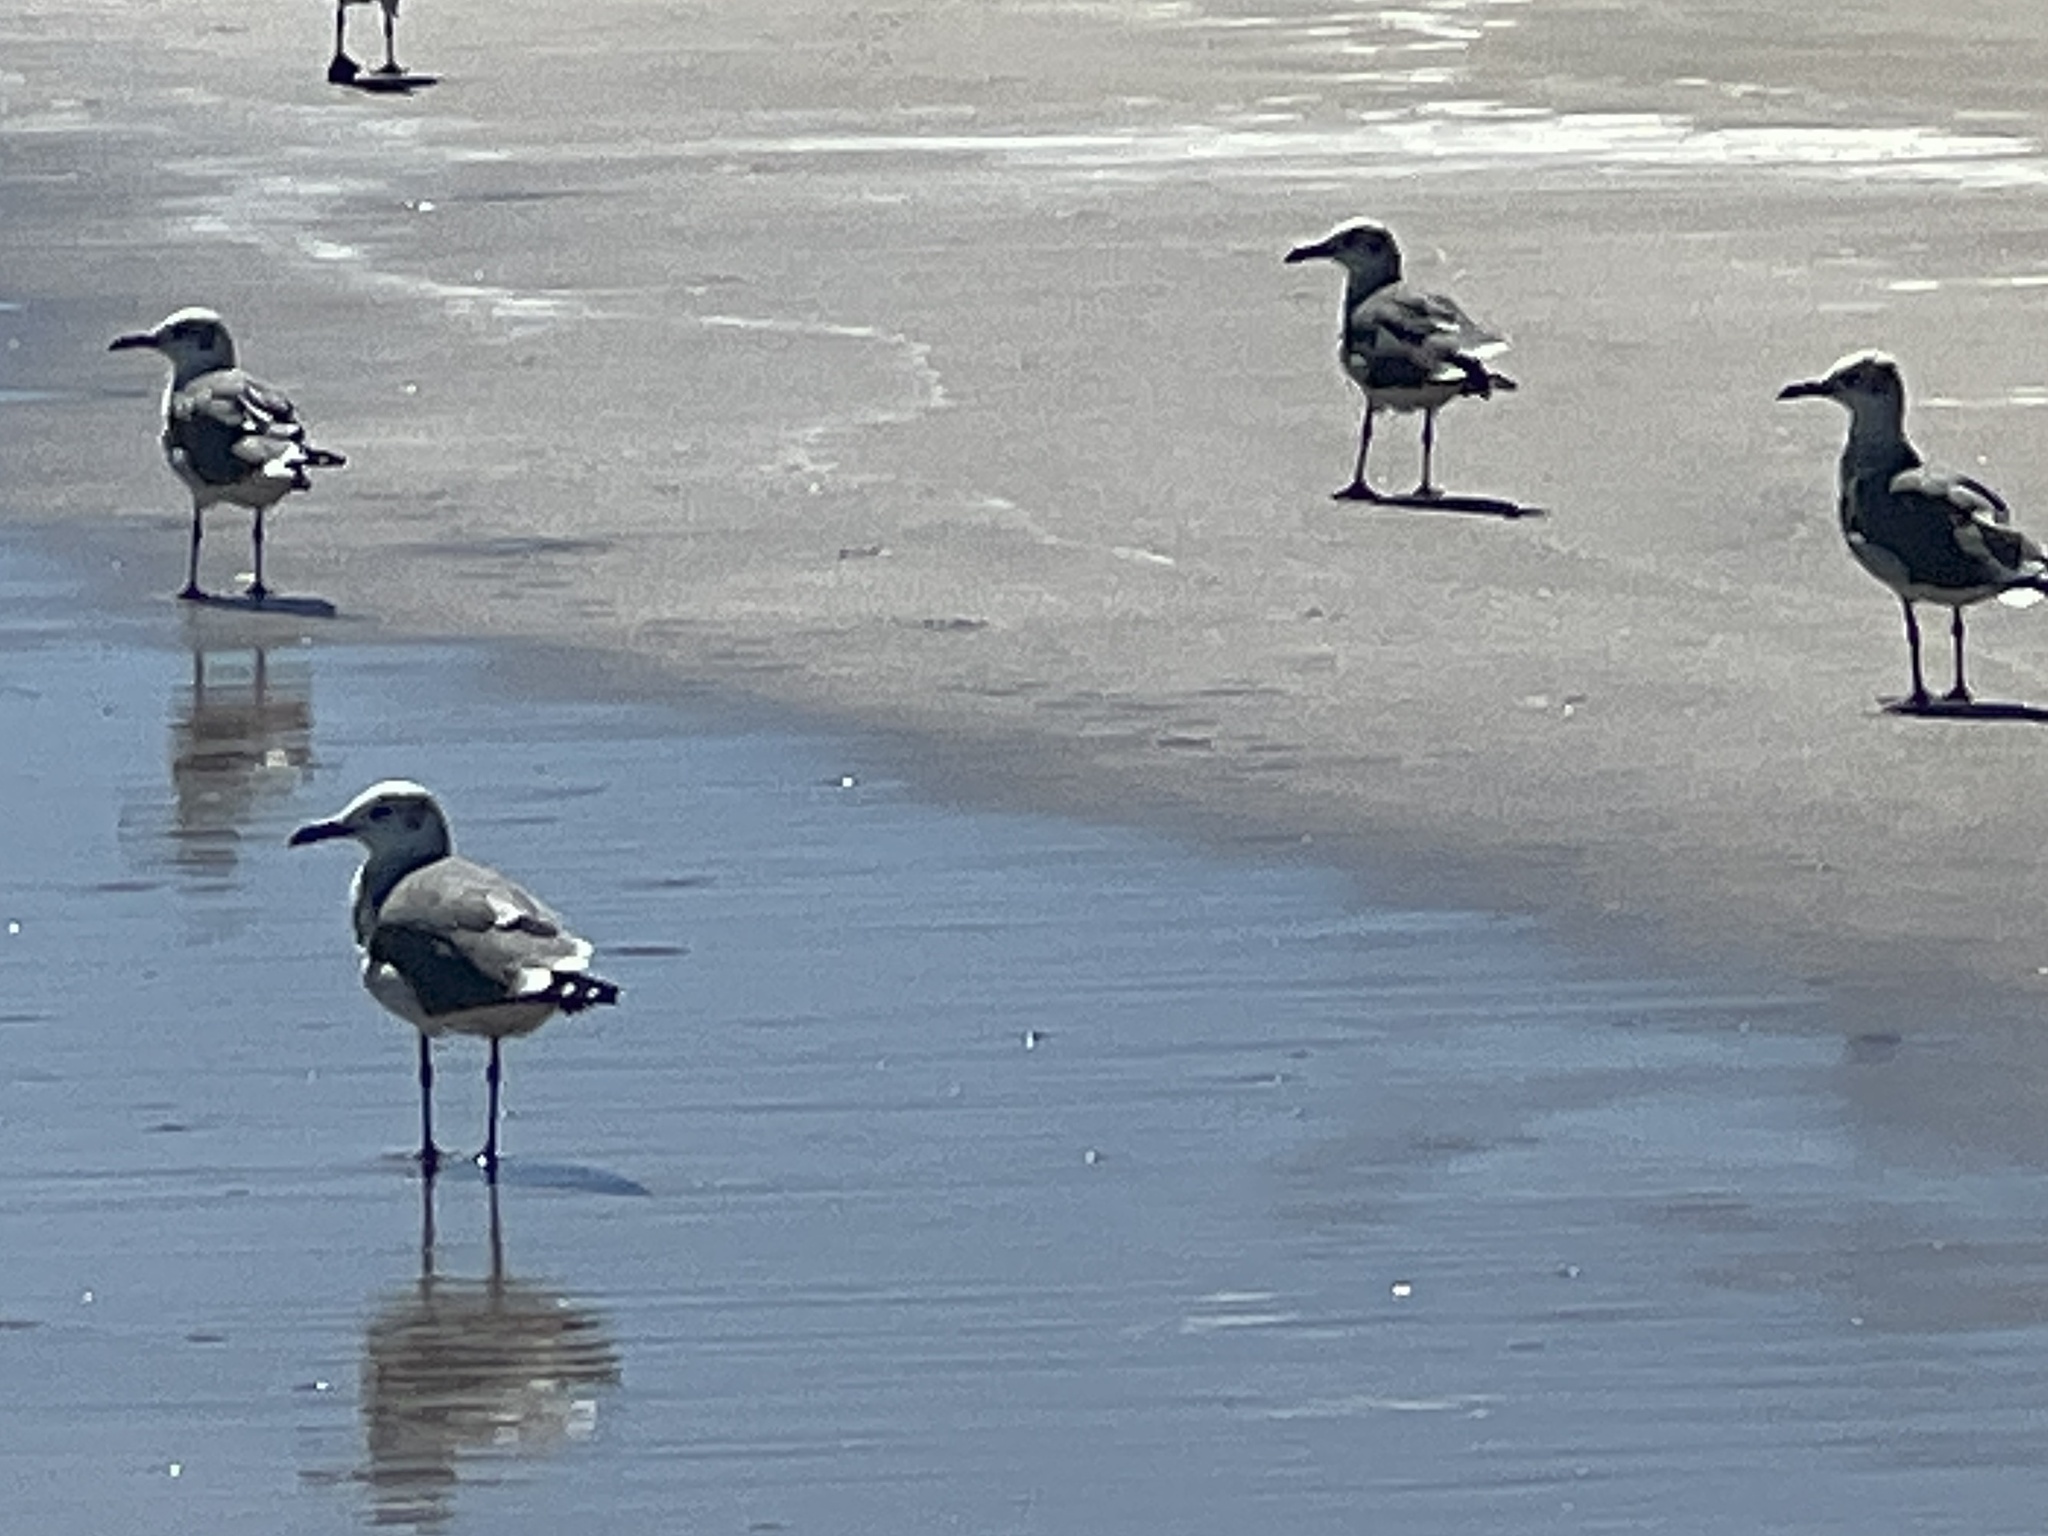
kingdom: Animalia
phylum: Chordata
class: Aves
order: Charadriiformes
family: Laridae
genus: Leucophaeus
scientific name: Leucophaeus atricilla
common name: Laughing gull
